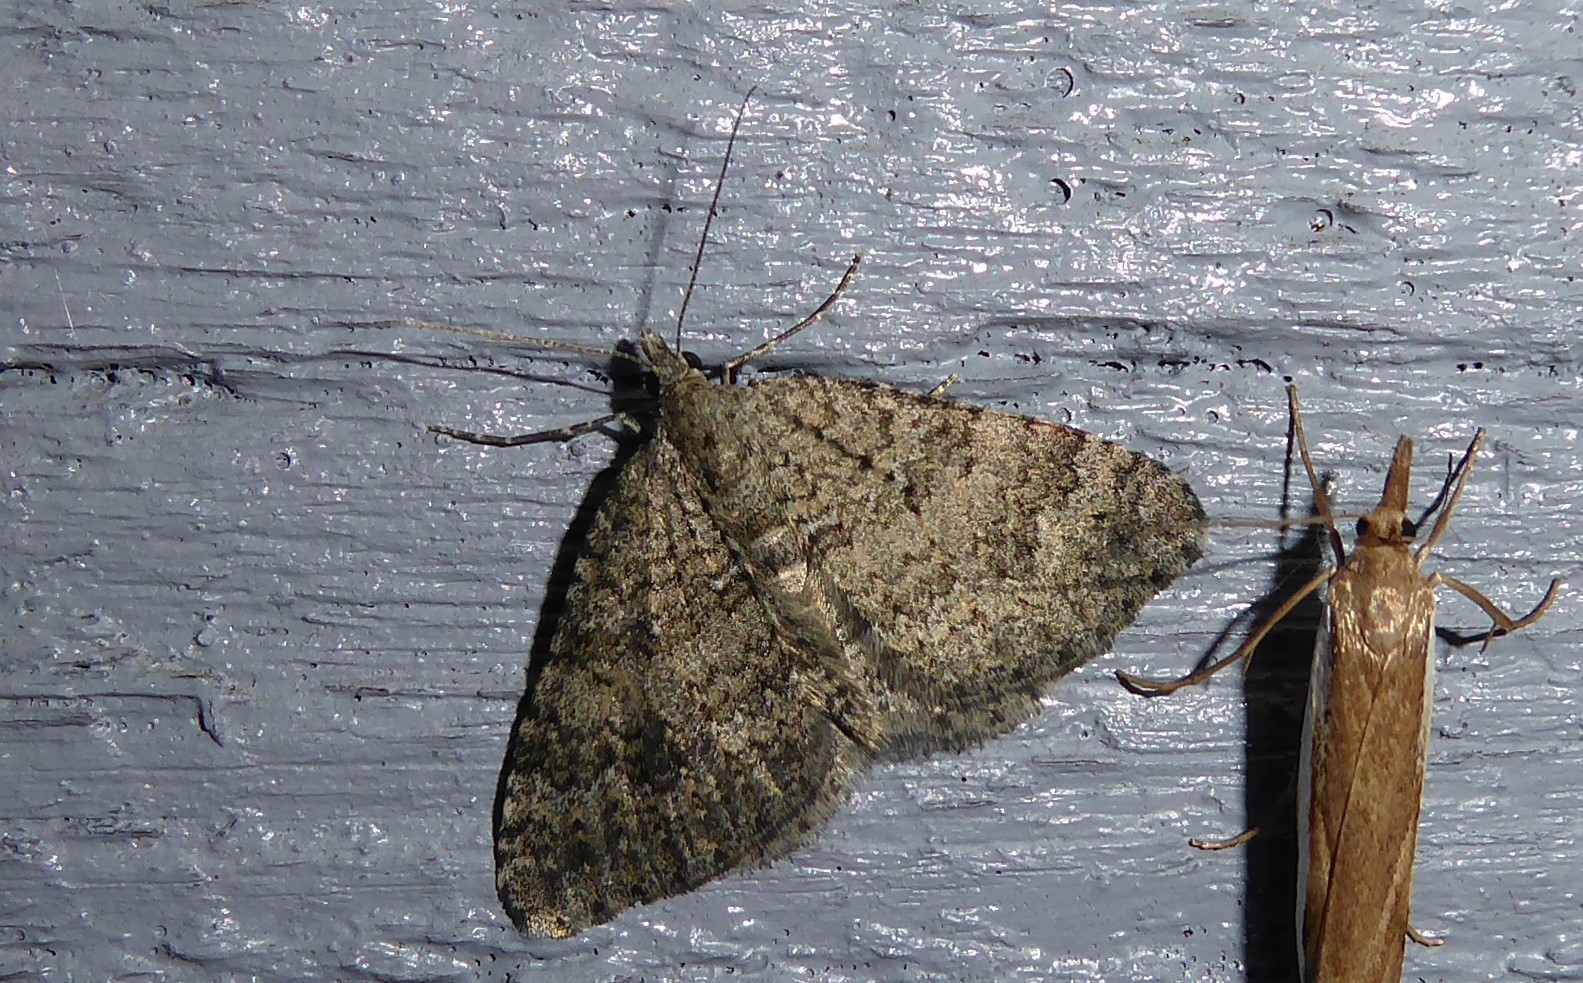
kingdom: Animalia
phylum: Arthropoda
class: Insecta
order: Lepidoptera
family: Geometridae
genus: Helastia
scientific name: Helastia corcularia
